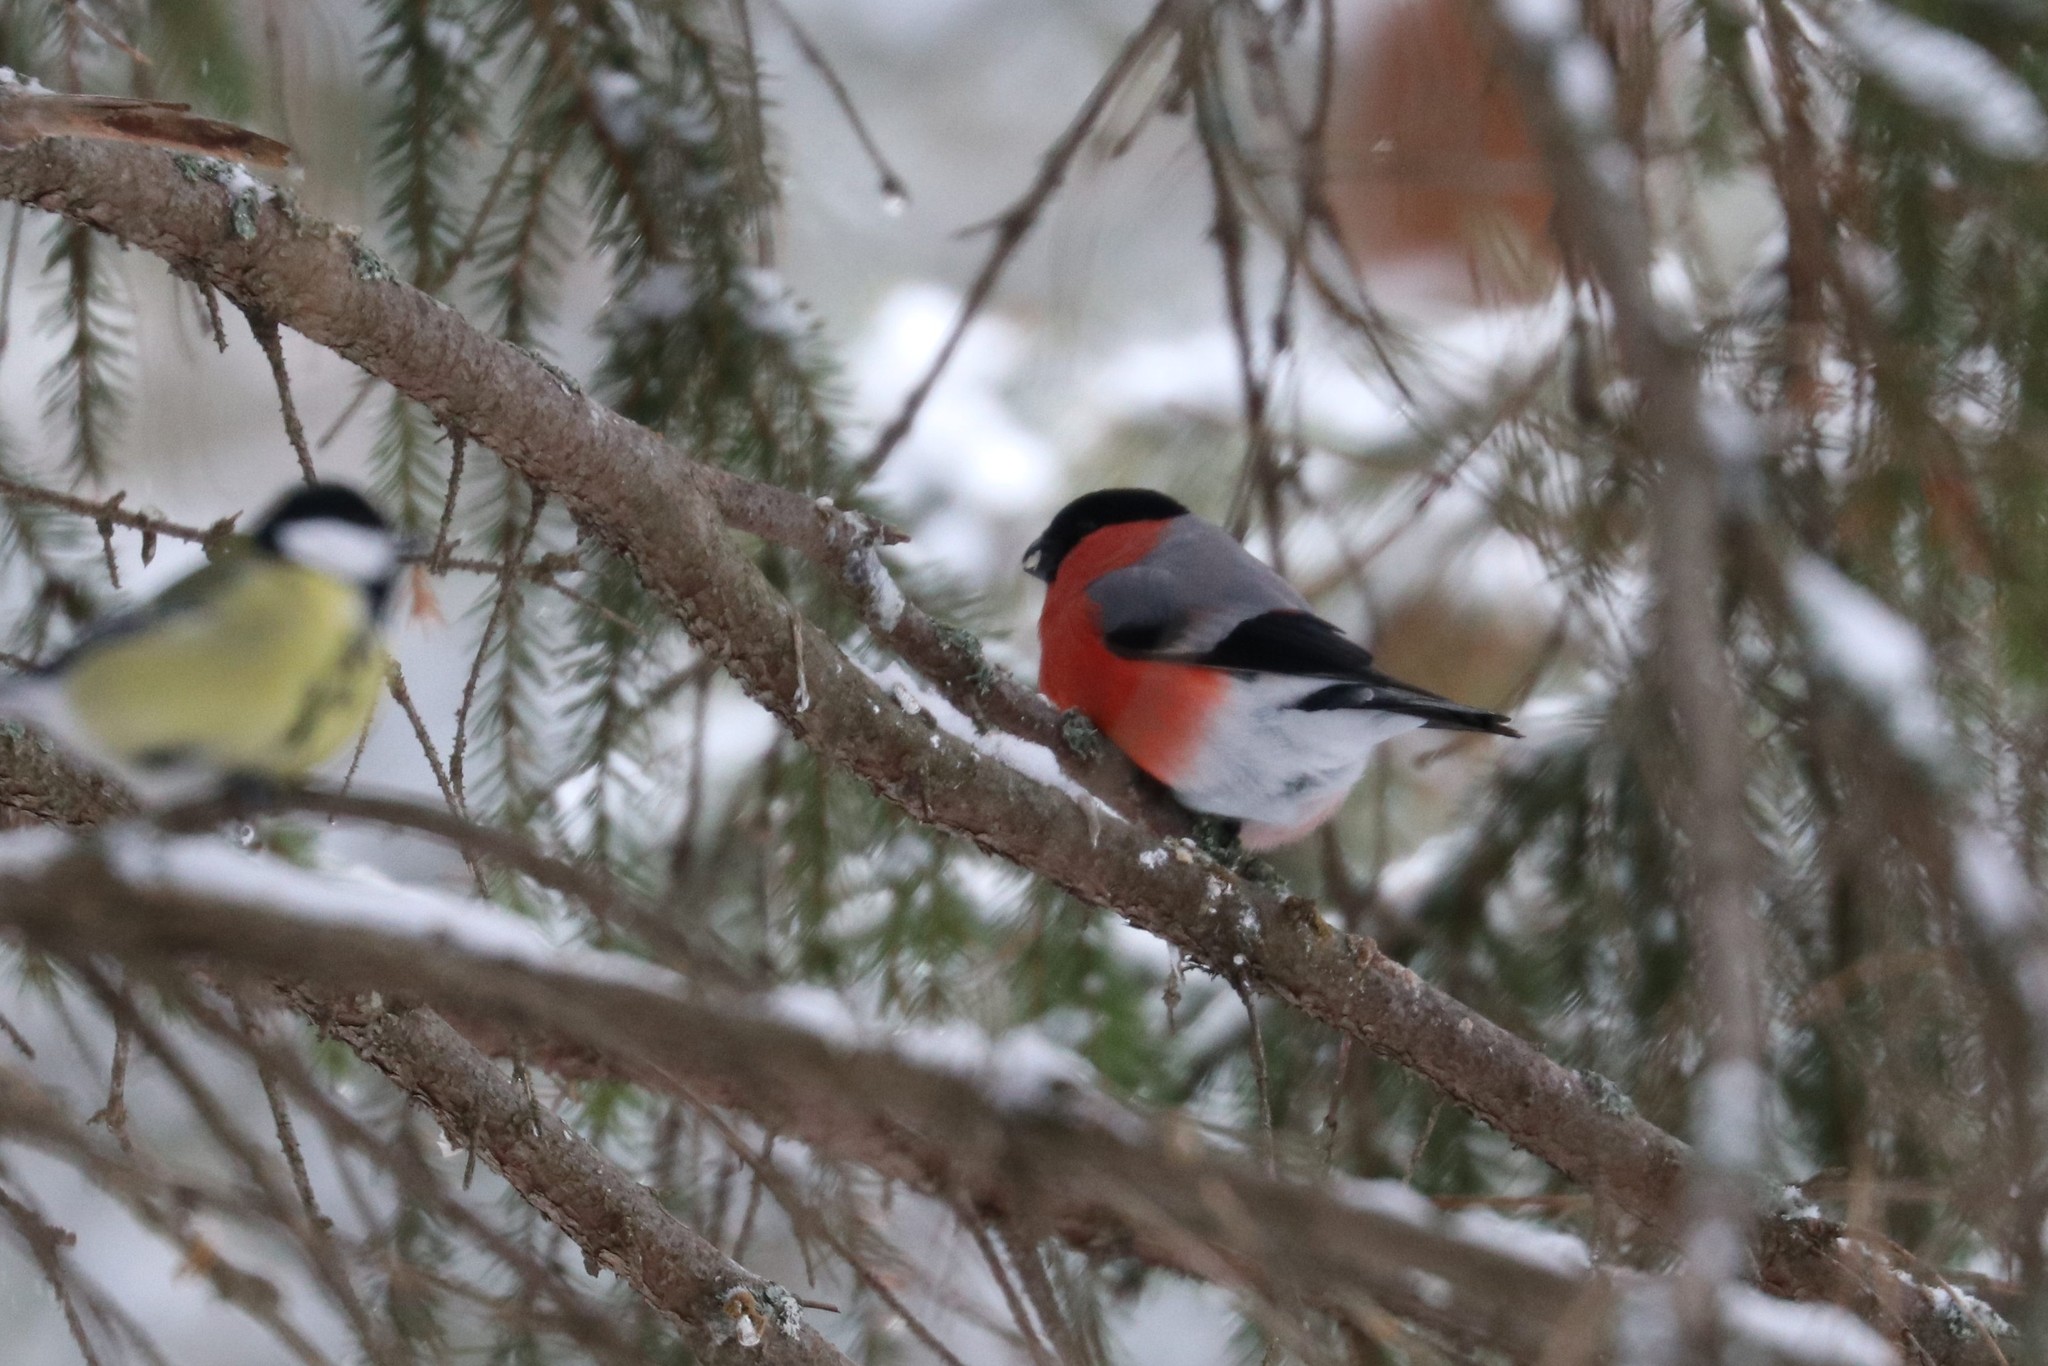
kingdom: Animalia
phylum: Chordata
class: Aves
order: Passeriformes
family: Fringillidae
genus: Pyrrhula
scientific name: Pyrrhula pyrrhula
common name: Eurasian bullfinch
